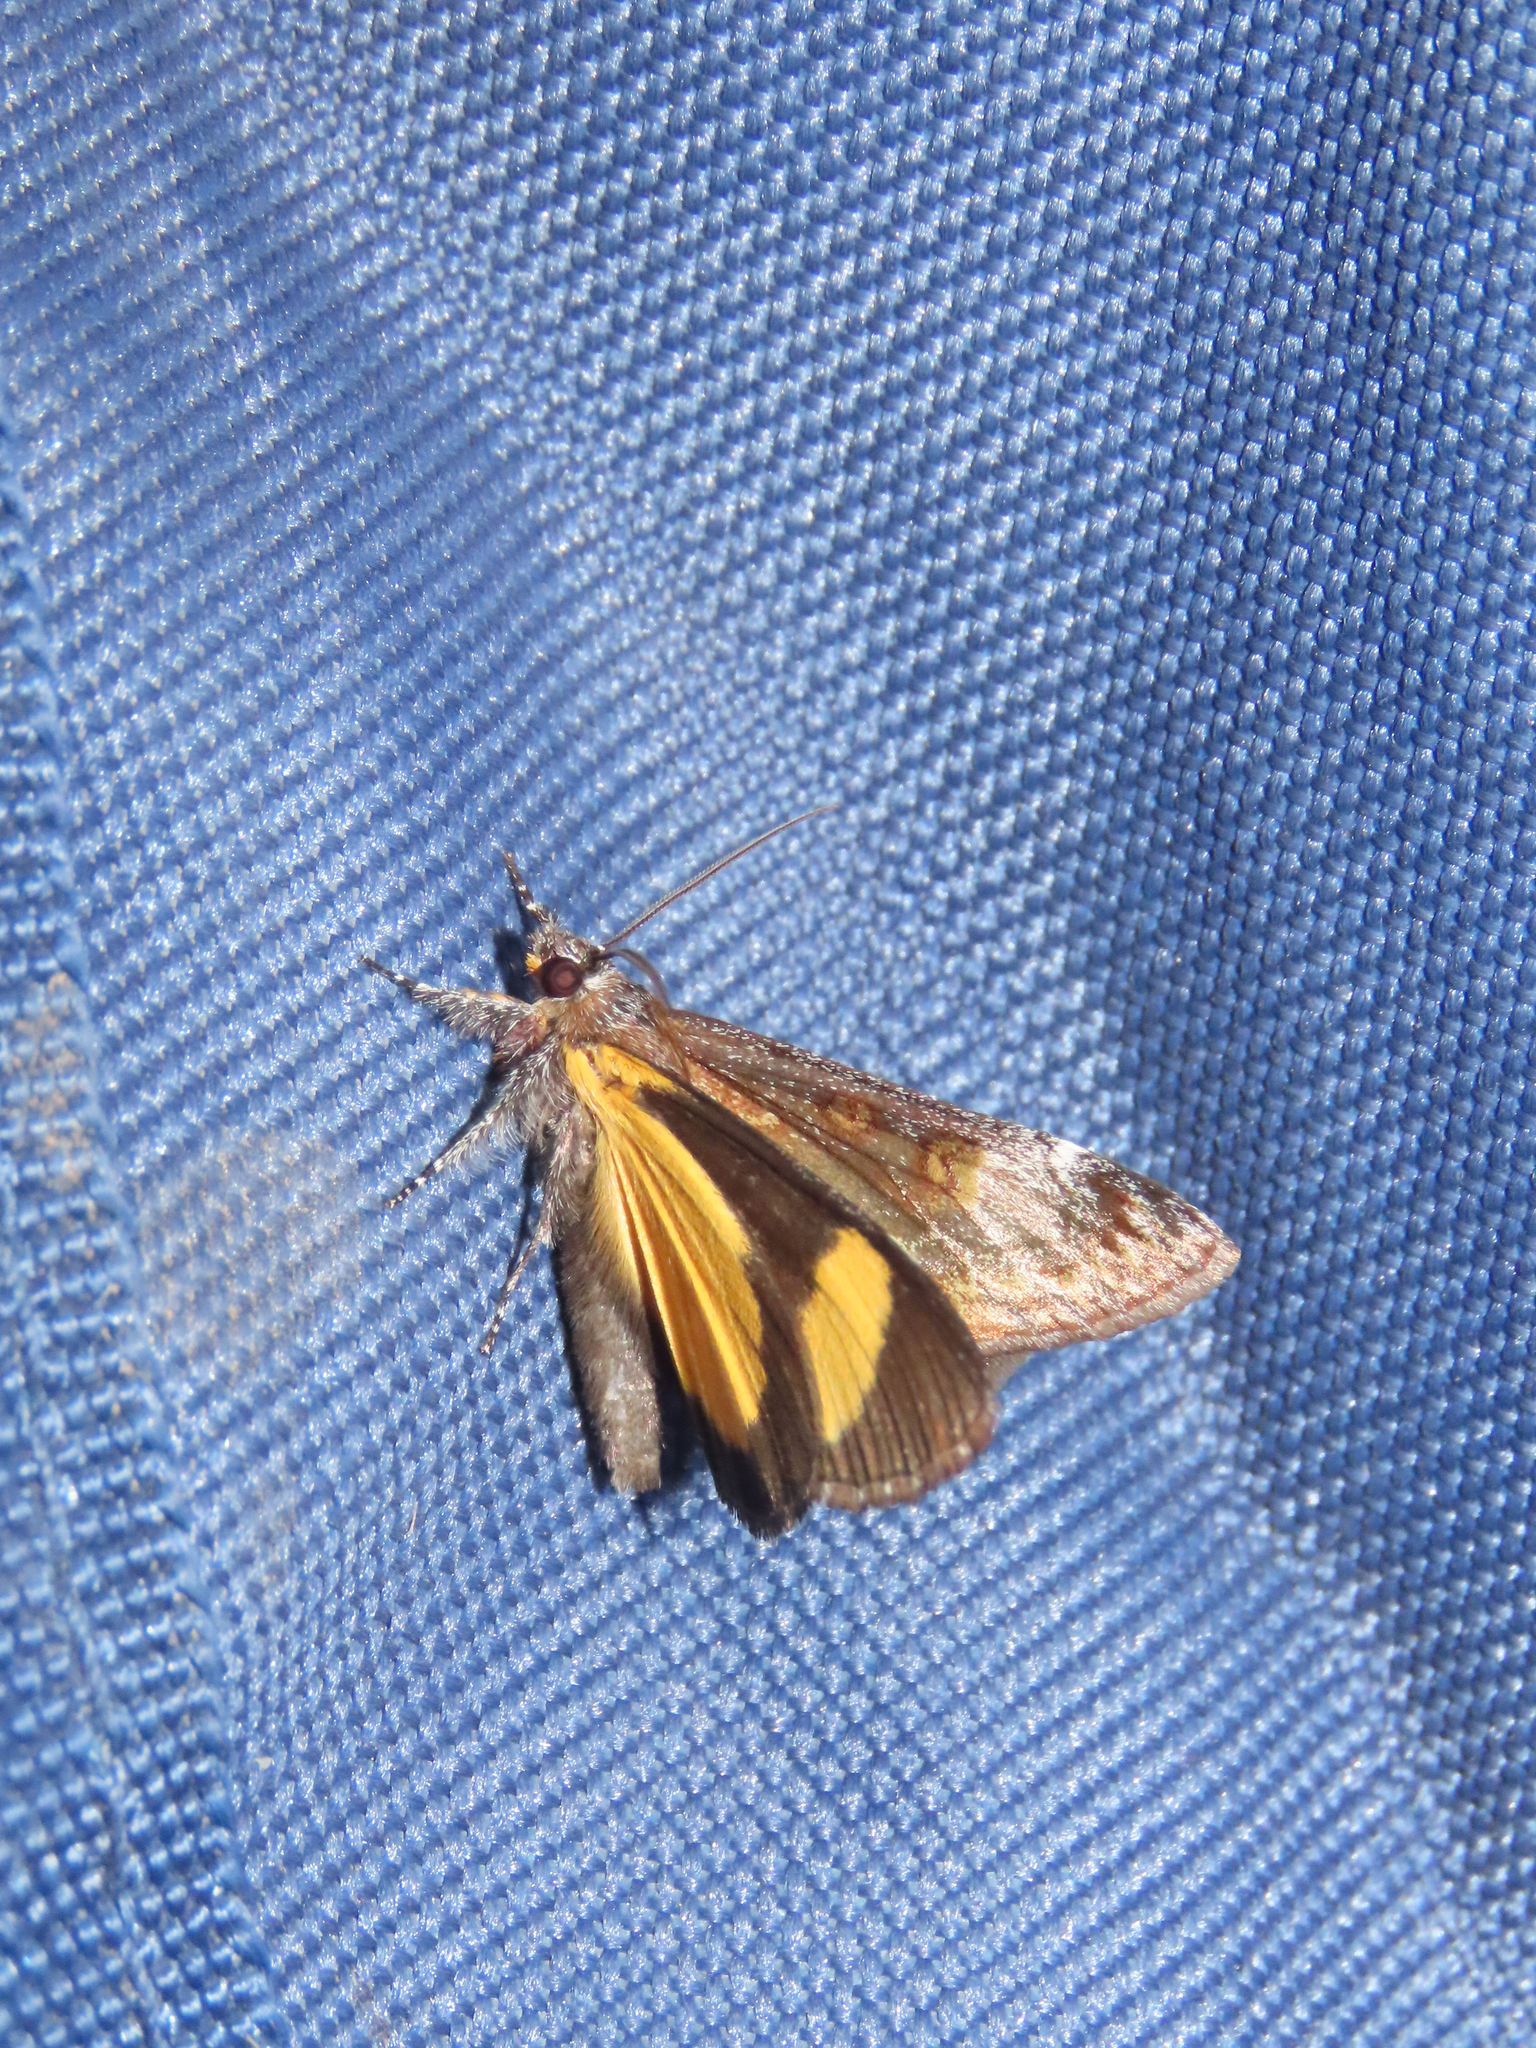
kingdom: Animalia
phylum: Arthropoda
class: Insecta
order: Lepidoptera
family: Noctuidae
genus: Gerra
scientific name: Gerra sevorsa
